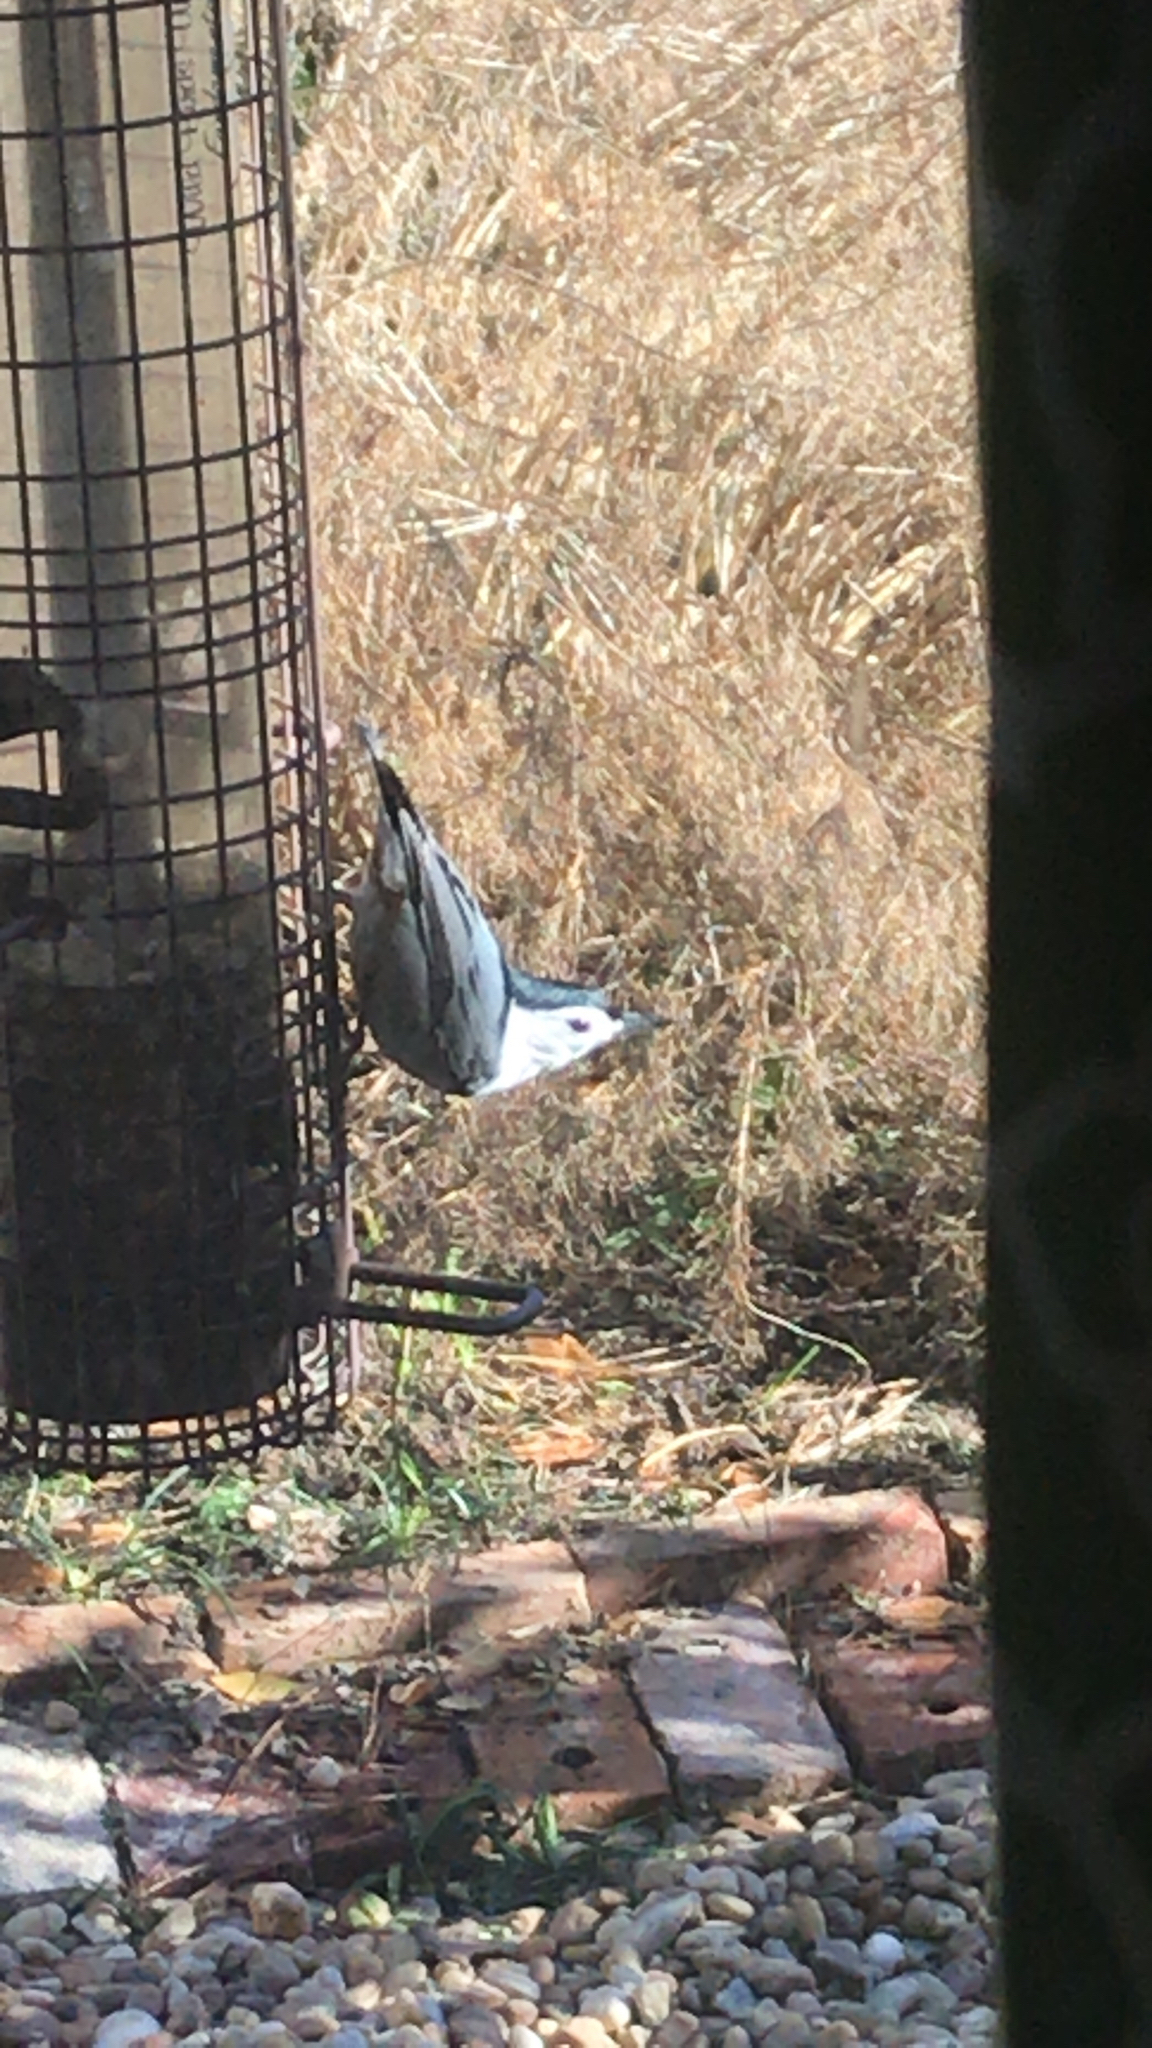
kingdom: Animalia
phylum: Chordata
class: Aves
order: Passeriformes
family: Sittidae
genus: Sitta
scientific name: Sitta carolinensis
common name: White-breasted nuthatch
